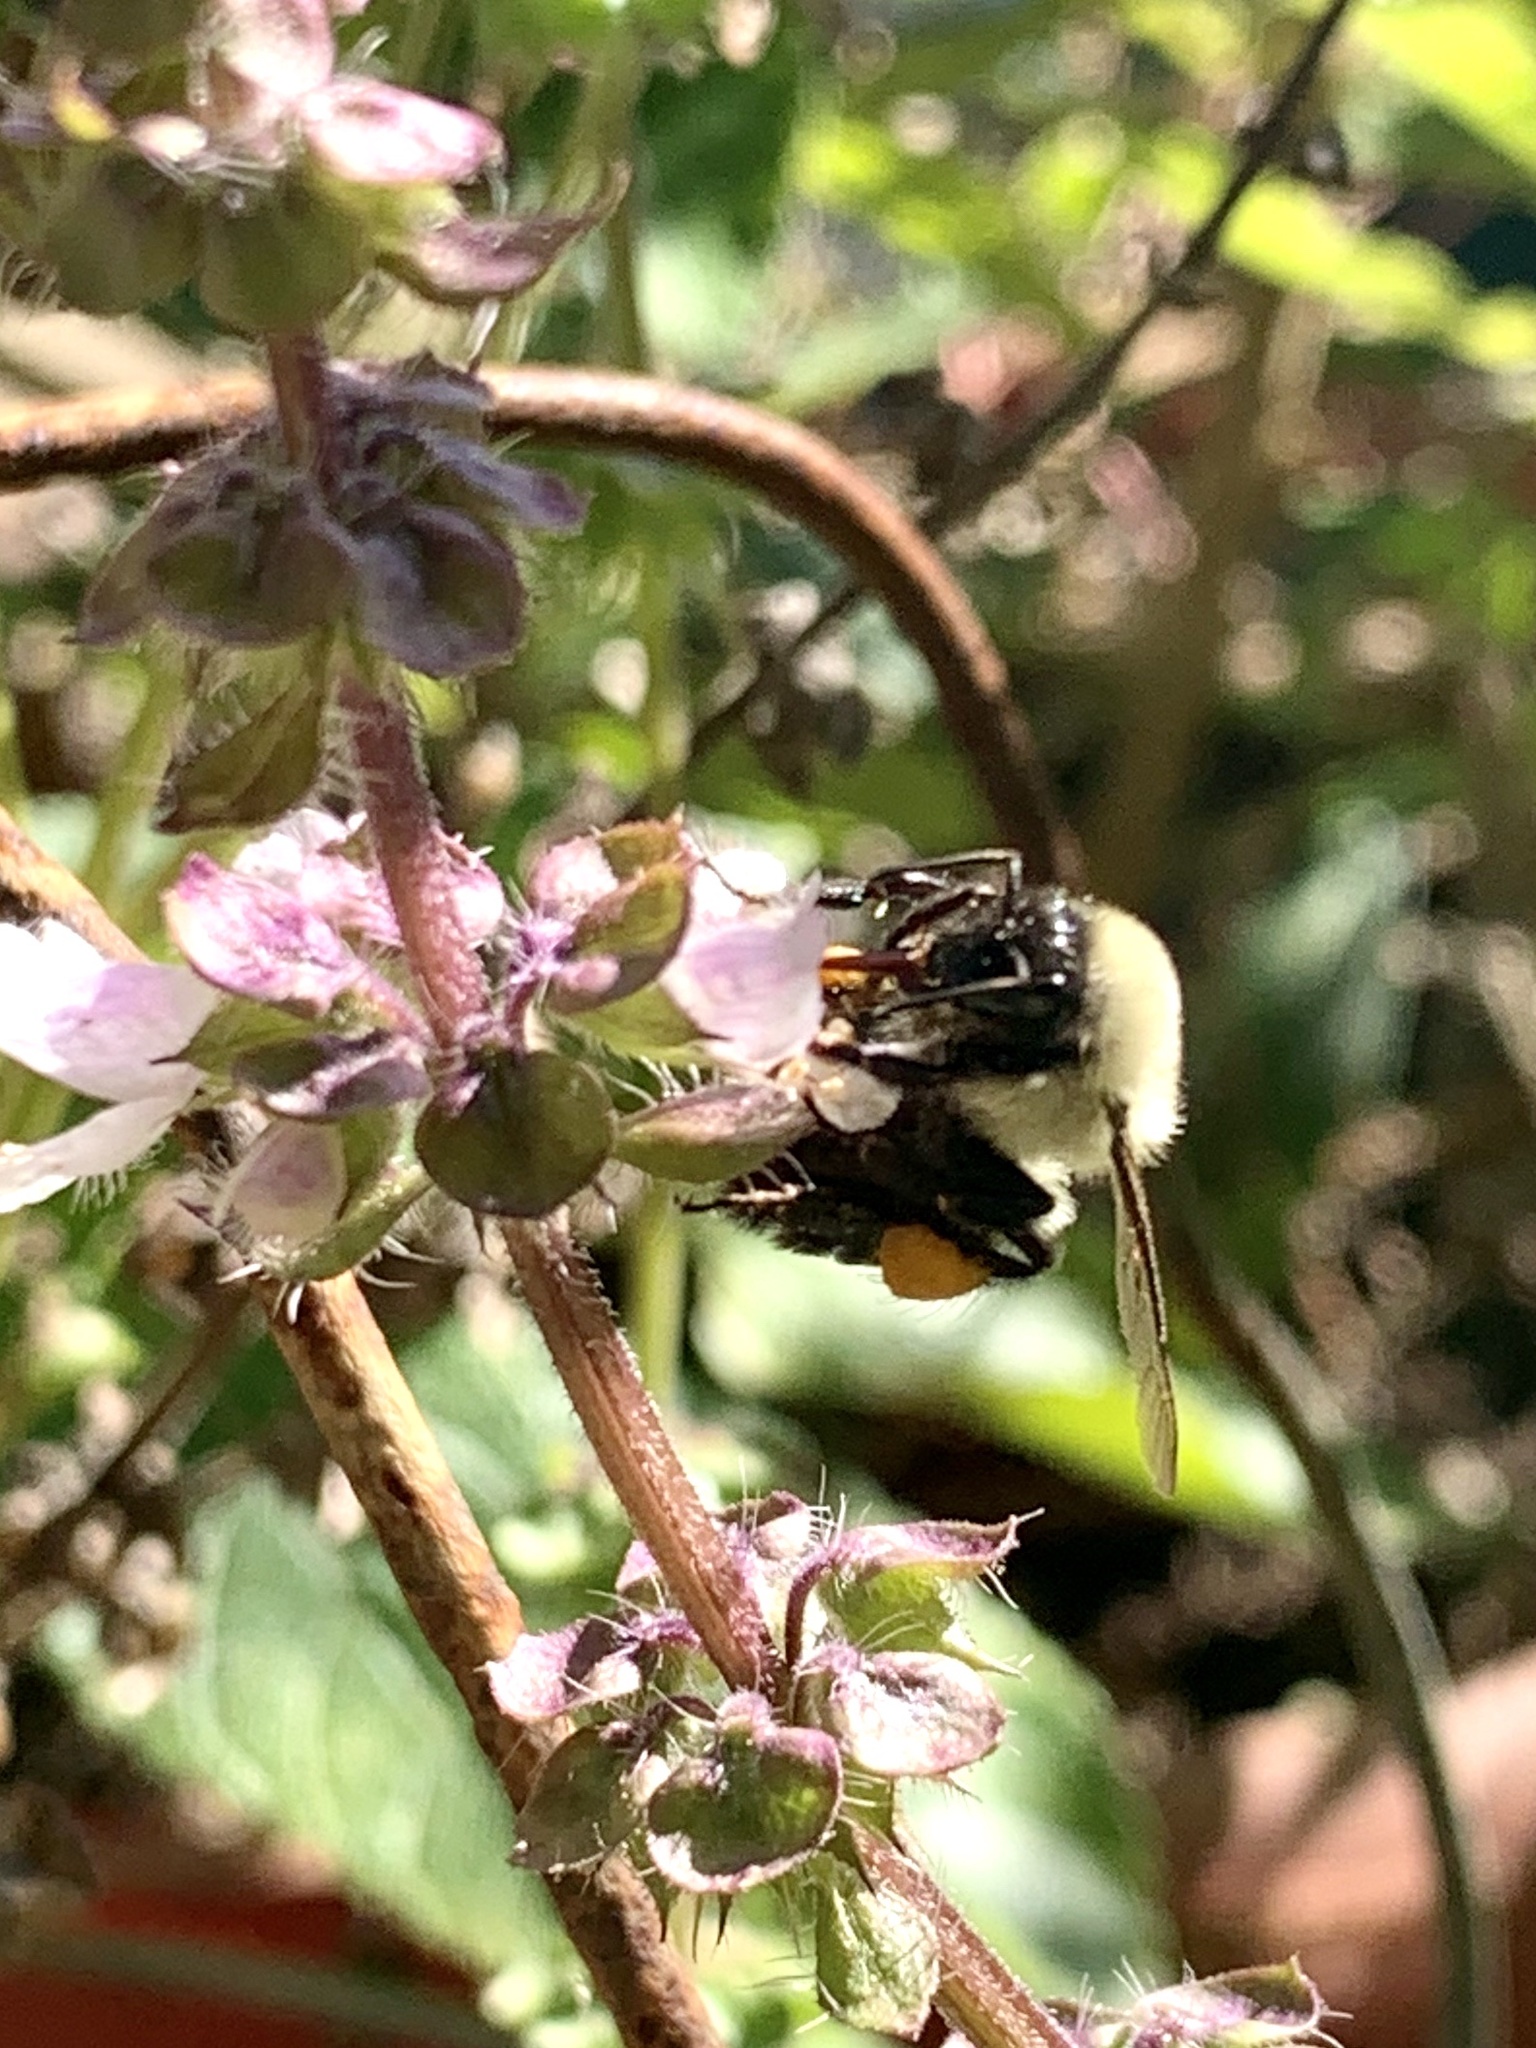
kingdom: Animalia
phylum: Arthropoda
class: Insecta
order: Hymenoptera
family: Apidae
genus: Bombus
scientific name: Bombus impatiens
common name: Common eastern bumble bee
